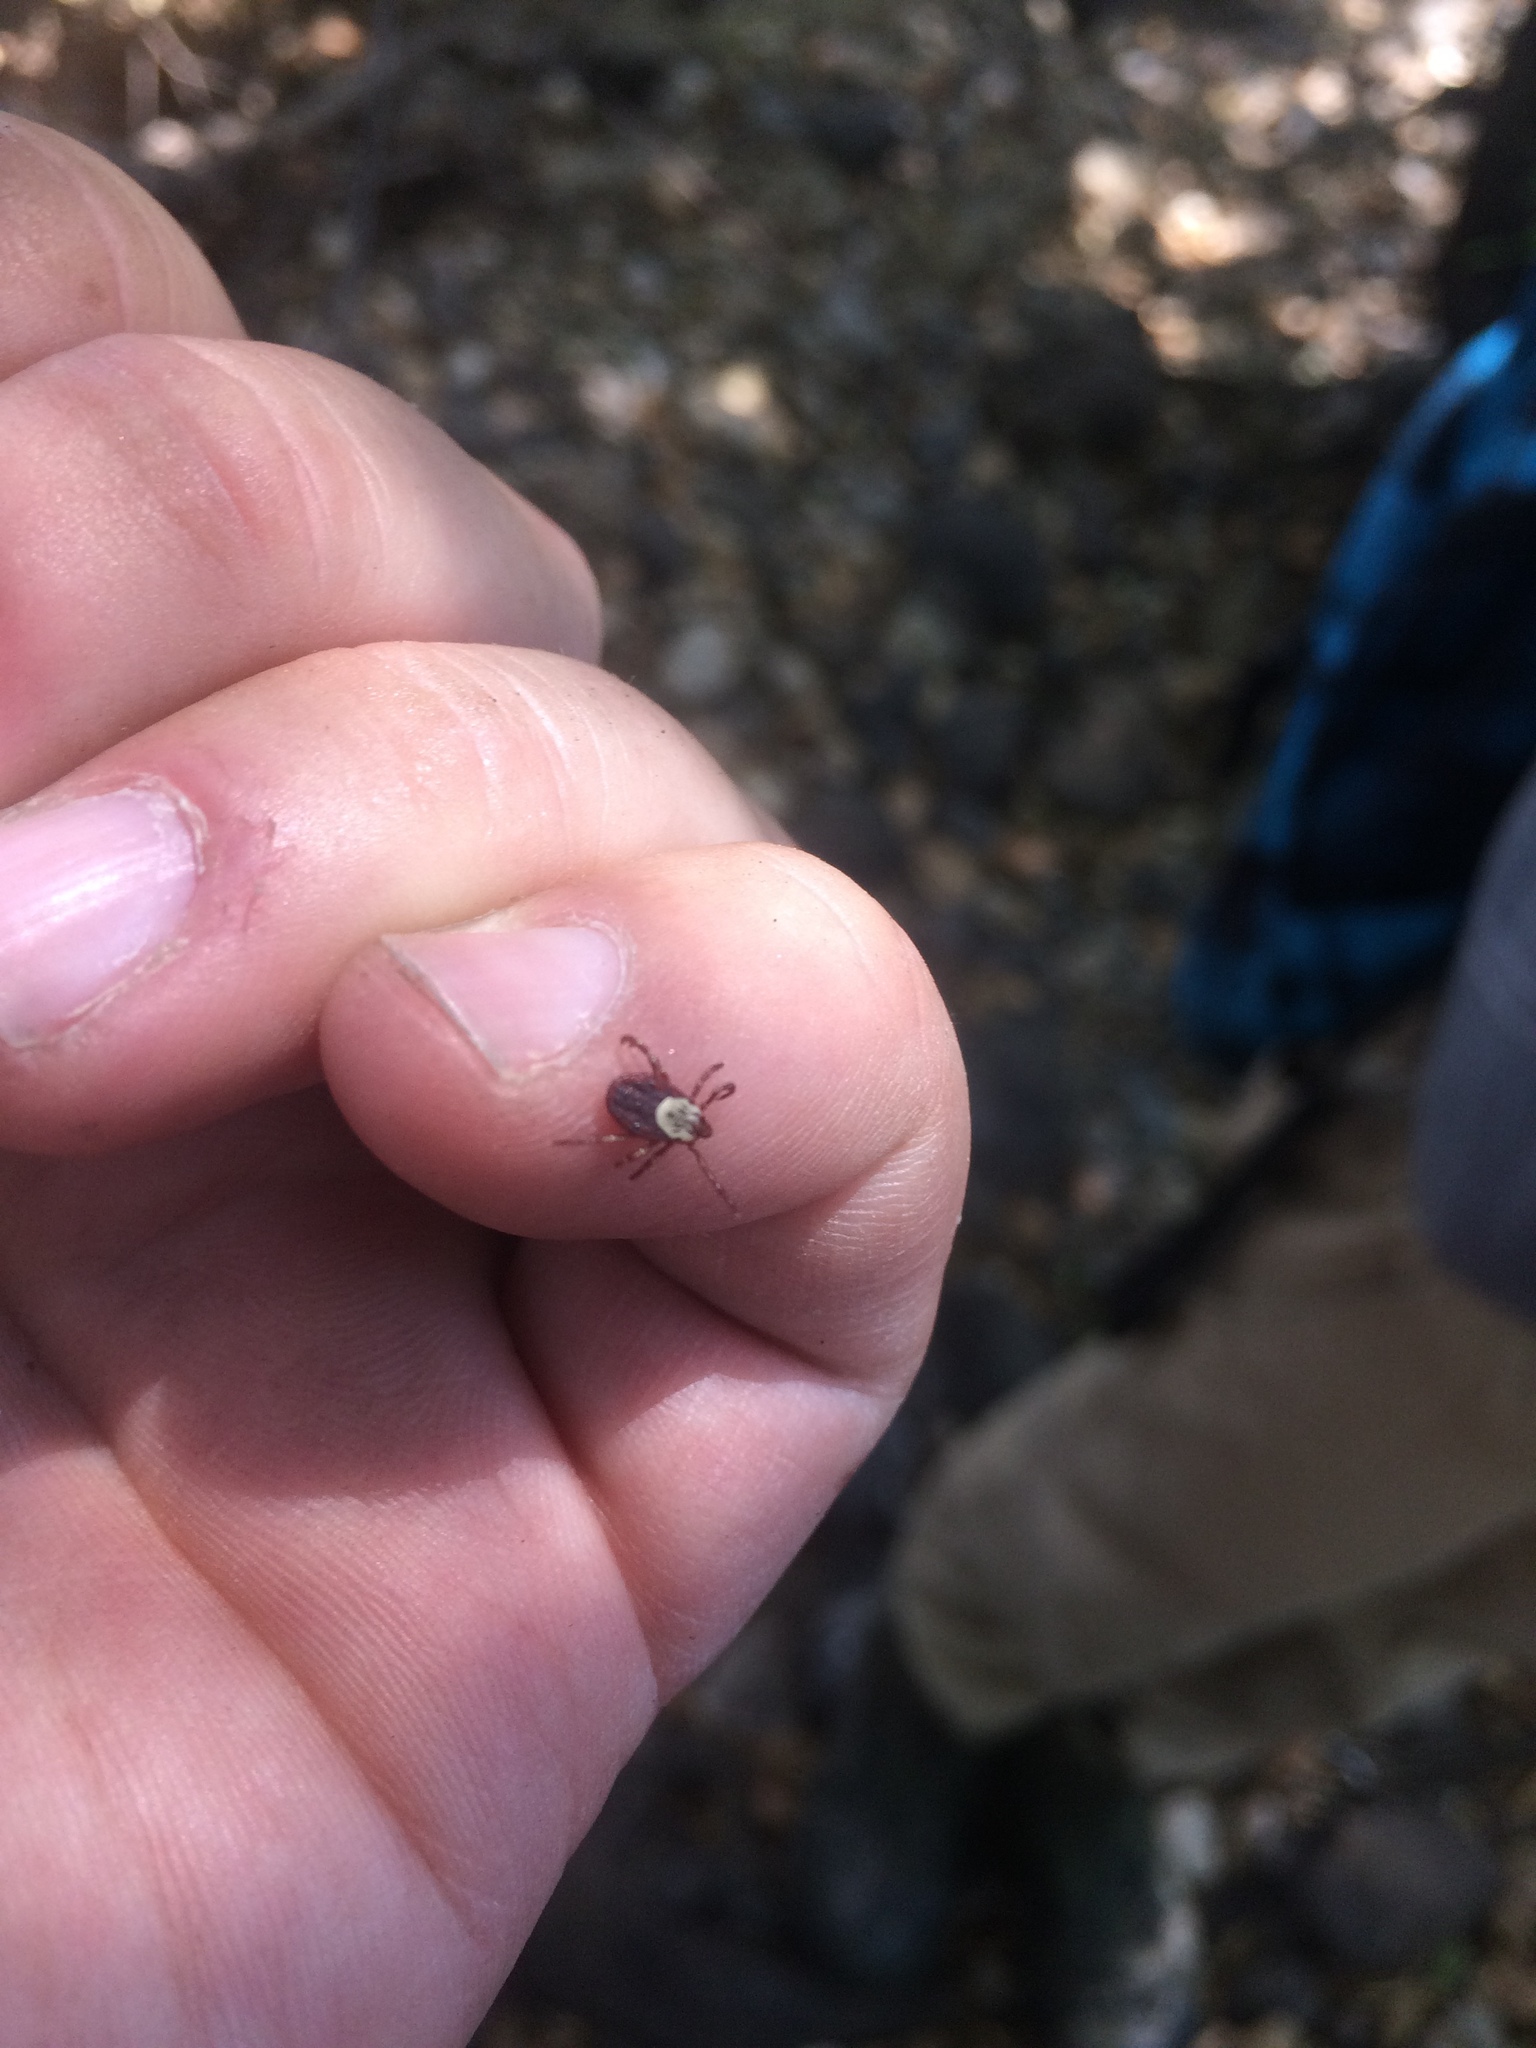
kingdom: Animalia
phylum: Arthropoda
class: Arachnida
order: Ixodida
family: Ixodidae
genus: Dermacentor
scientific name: Dermacentor variabilis
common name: American dog tick
